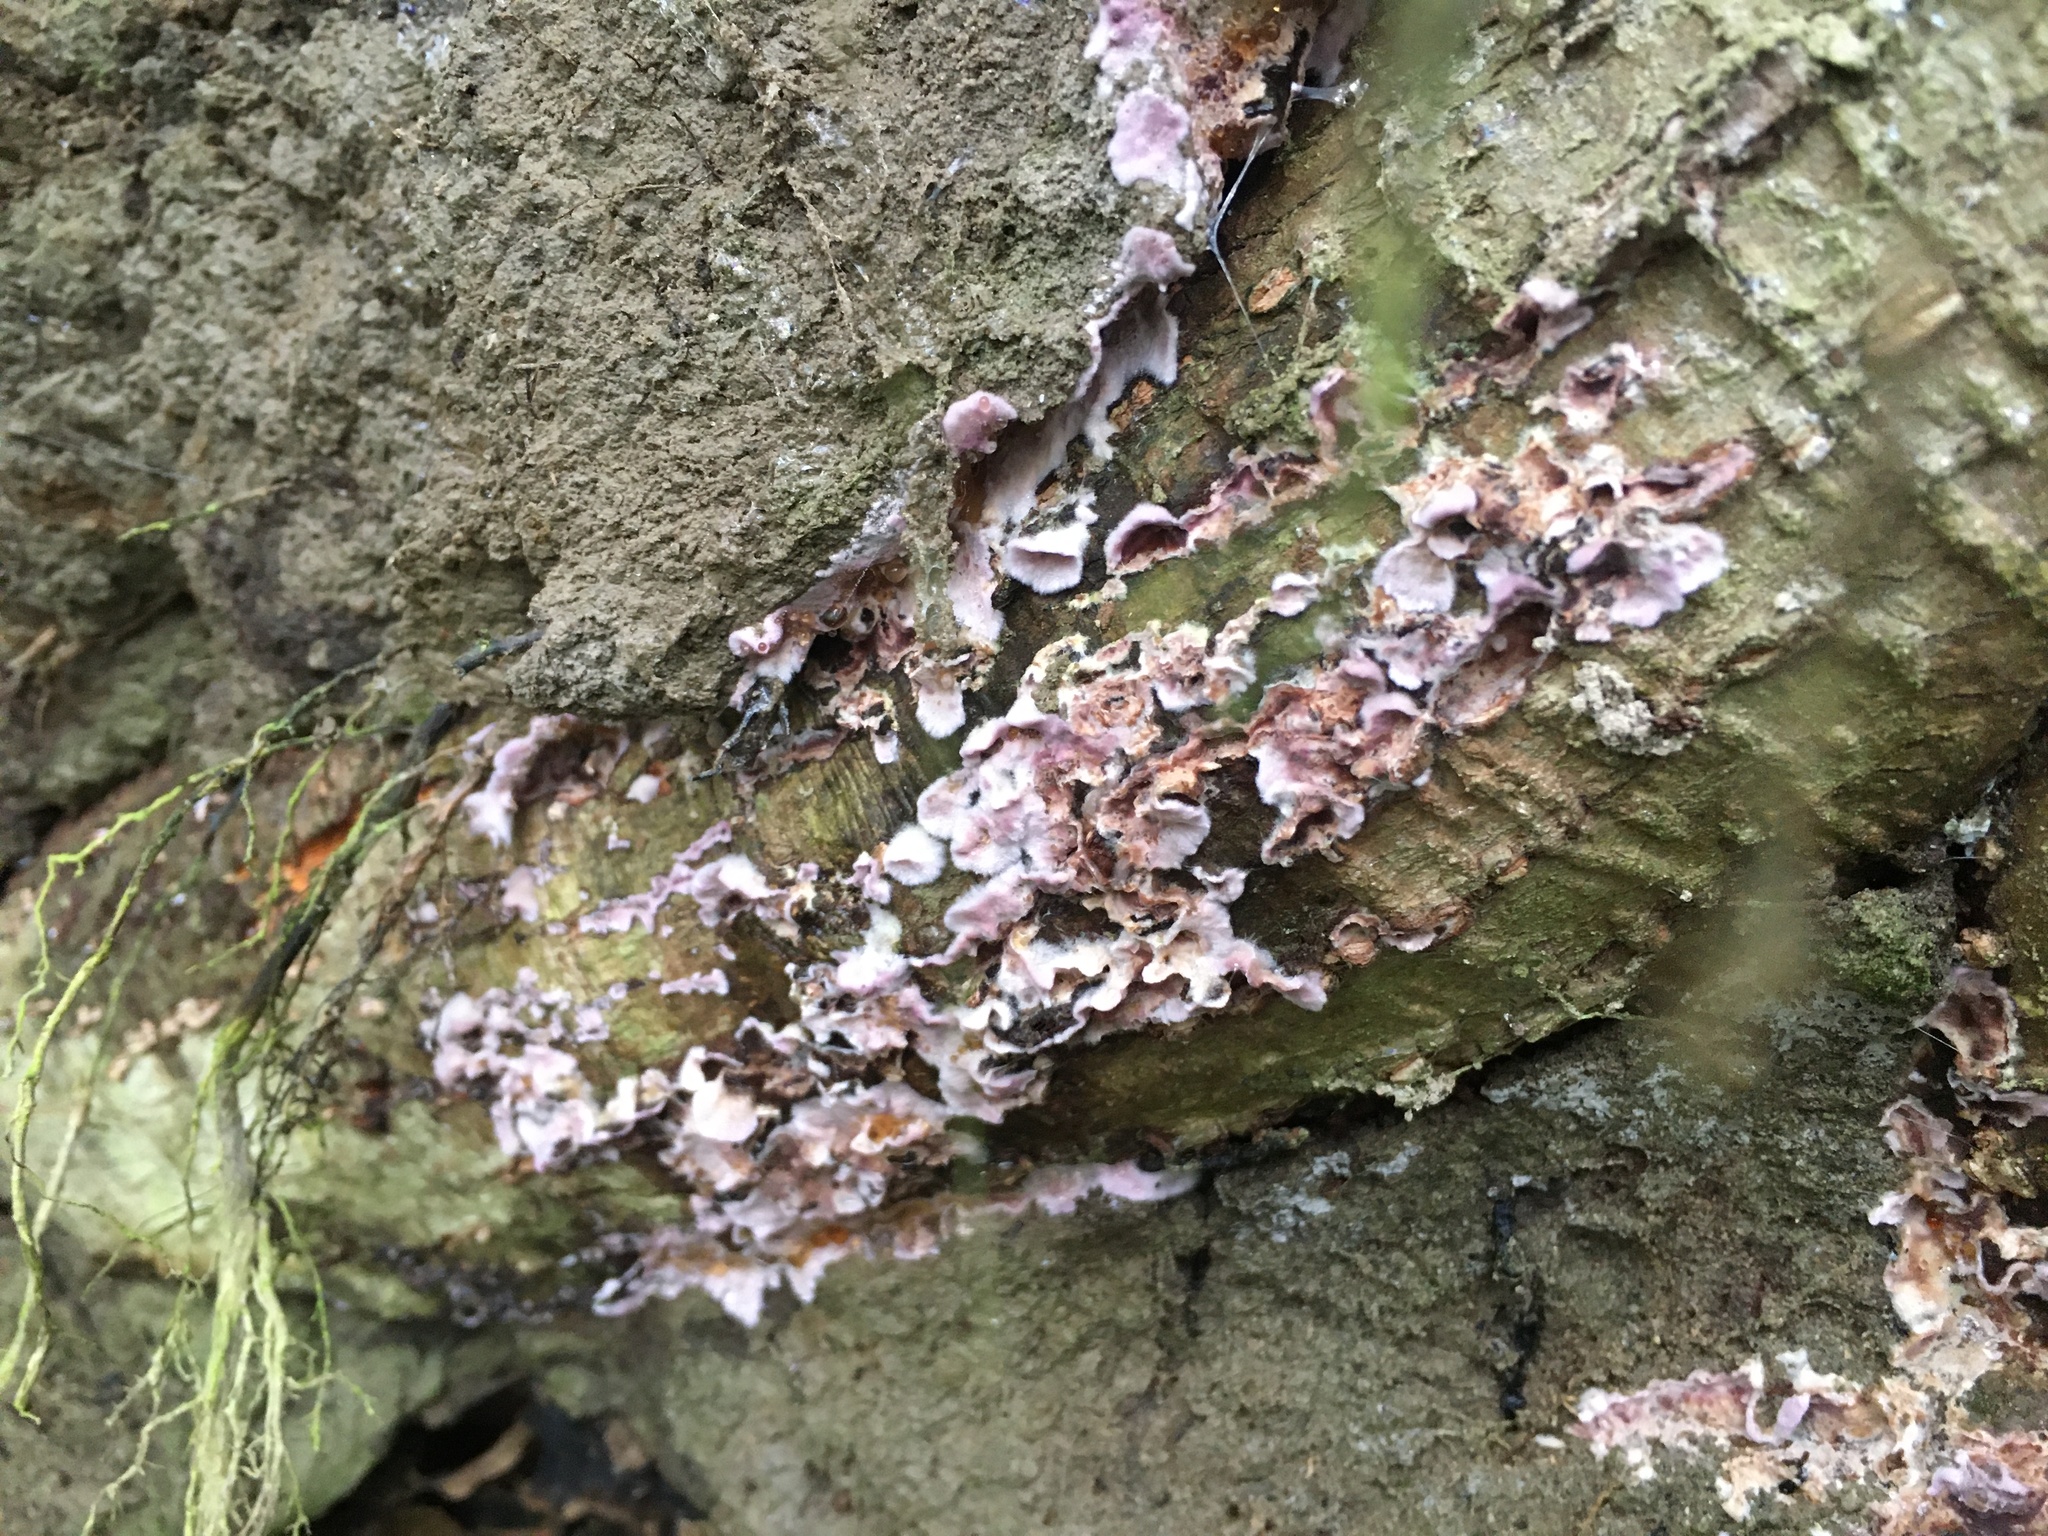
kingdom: Fungi
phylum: Basidiomycota
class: Agaricomycetes
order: Agaricales
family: Cyphellaceae
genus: Chondrostereum
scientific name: Chondrostereum purpureum
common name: Silver leaf disease
